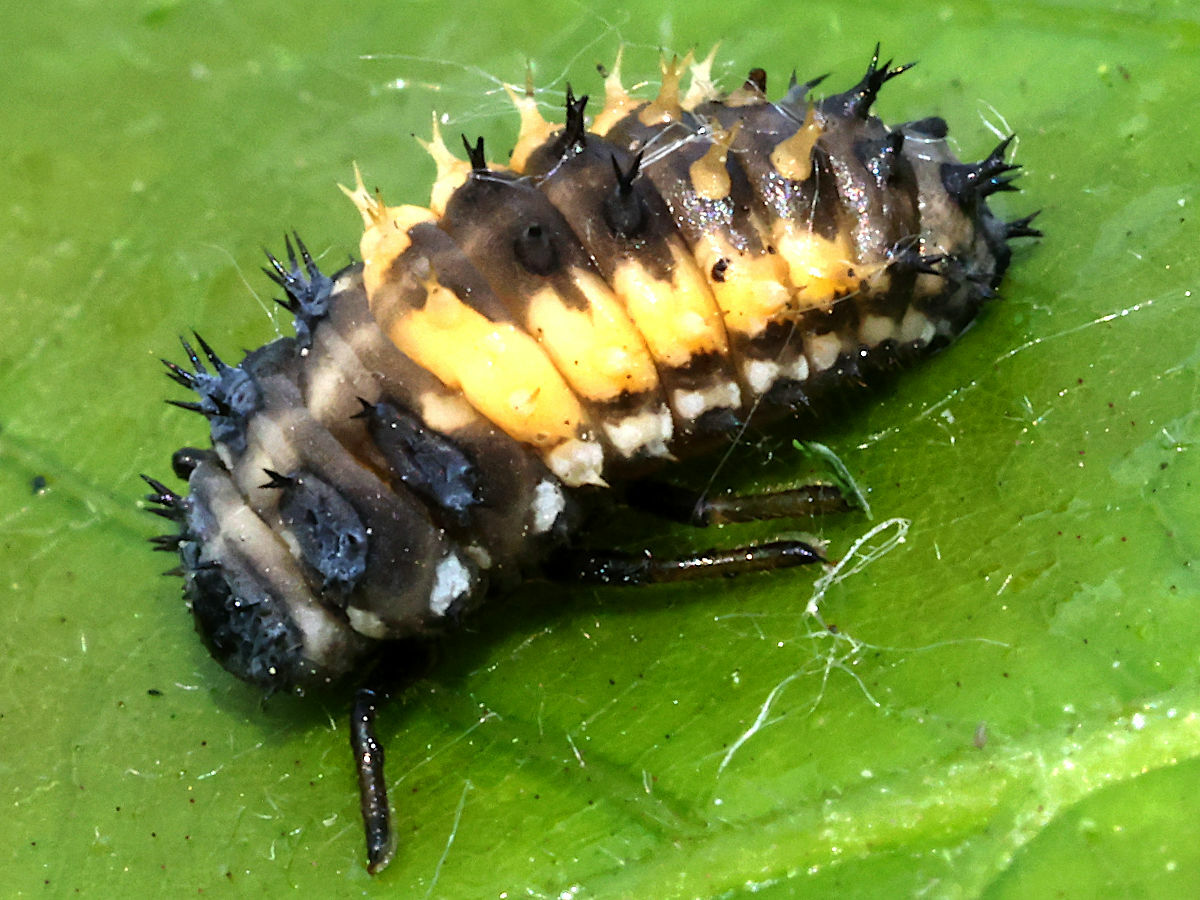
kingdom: Animalia
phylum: Arthropoda
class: Insecta
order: Coleoptera
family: Coccinellidae
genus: Harmonia
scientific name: Harmonia axyridis
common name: Harlequin ladybird
